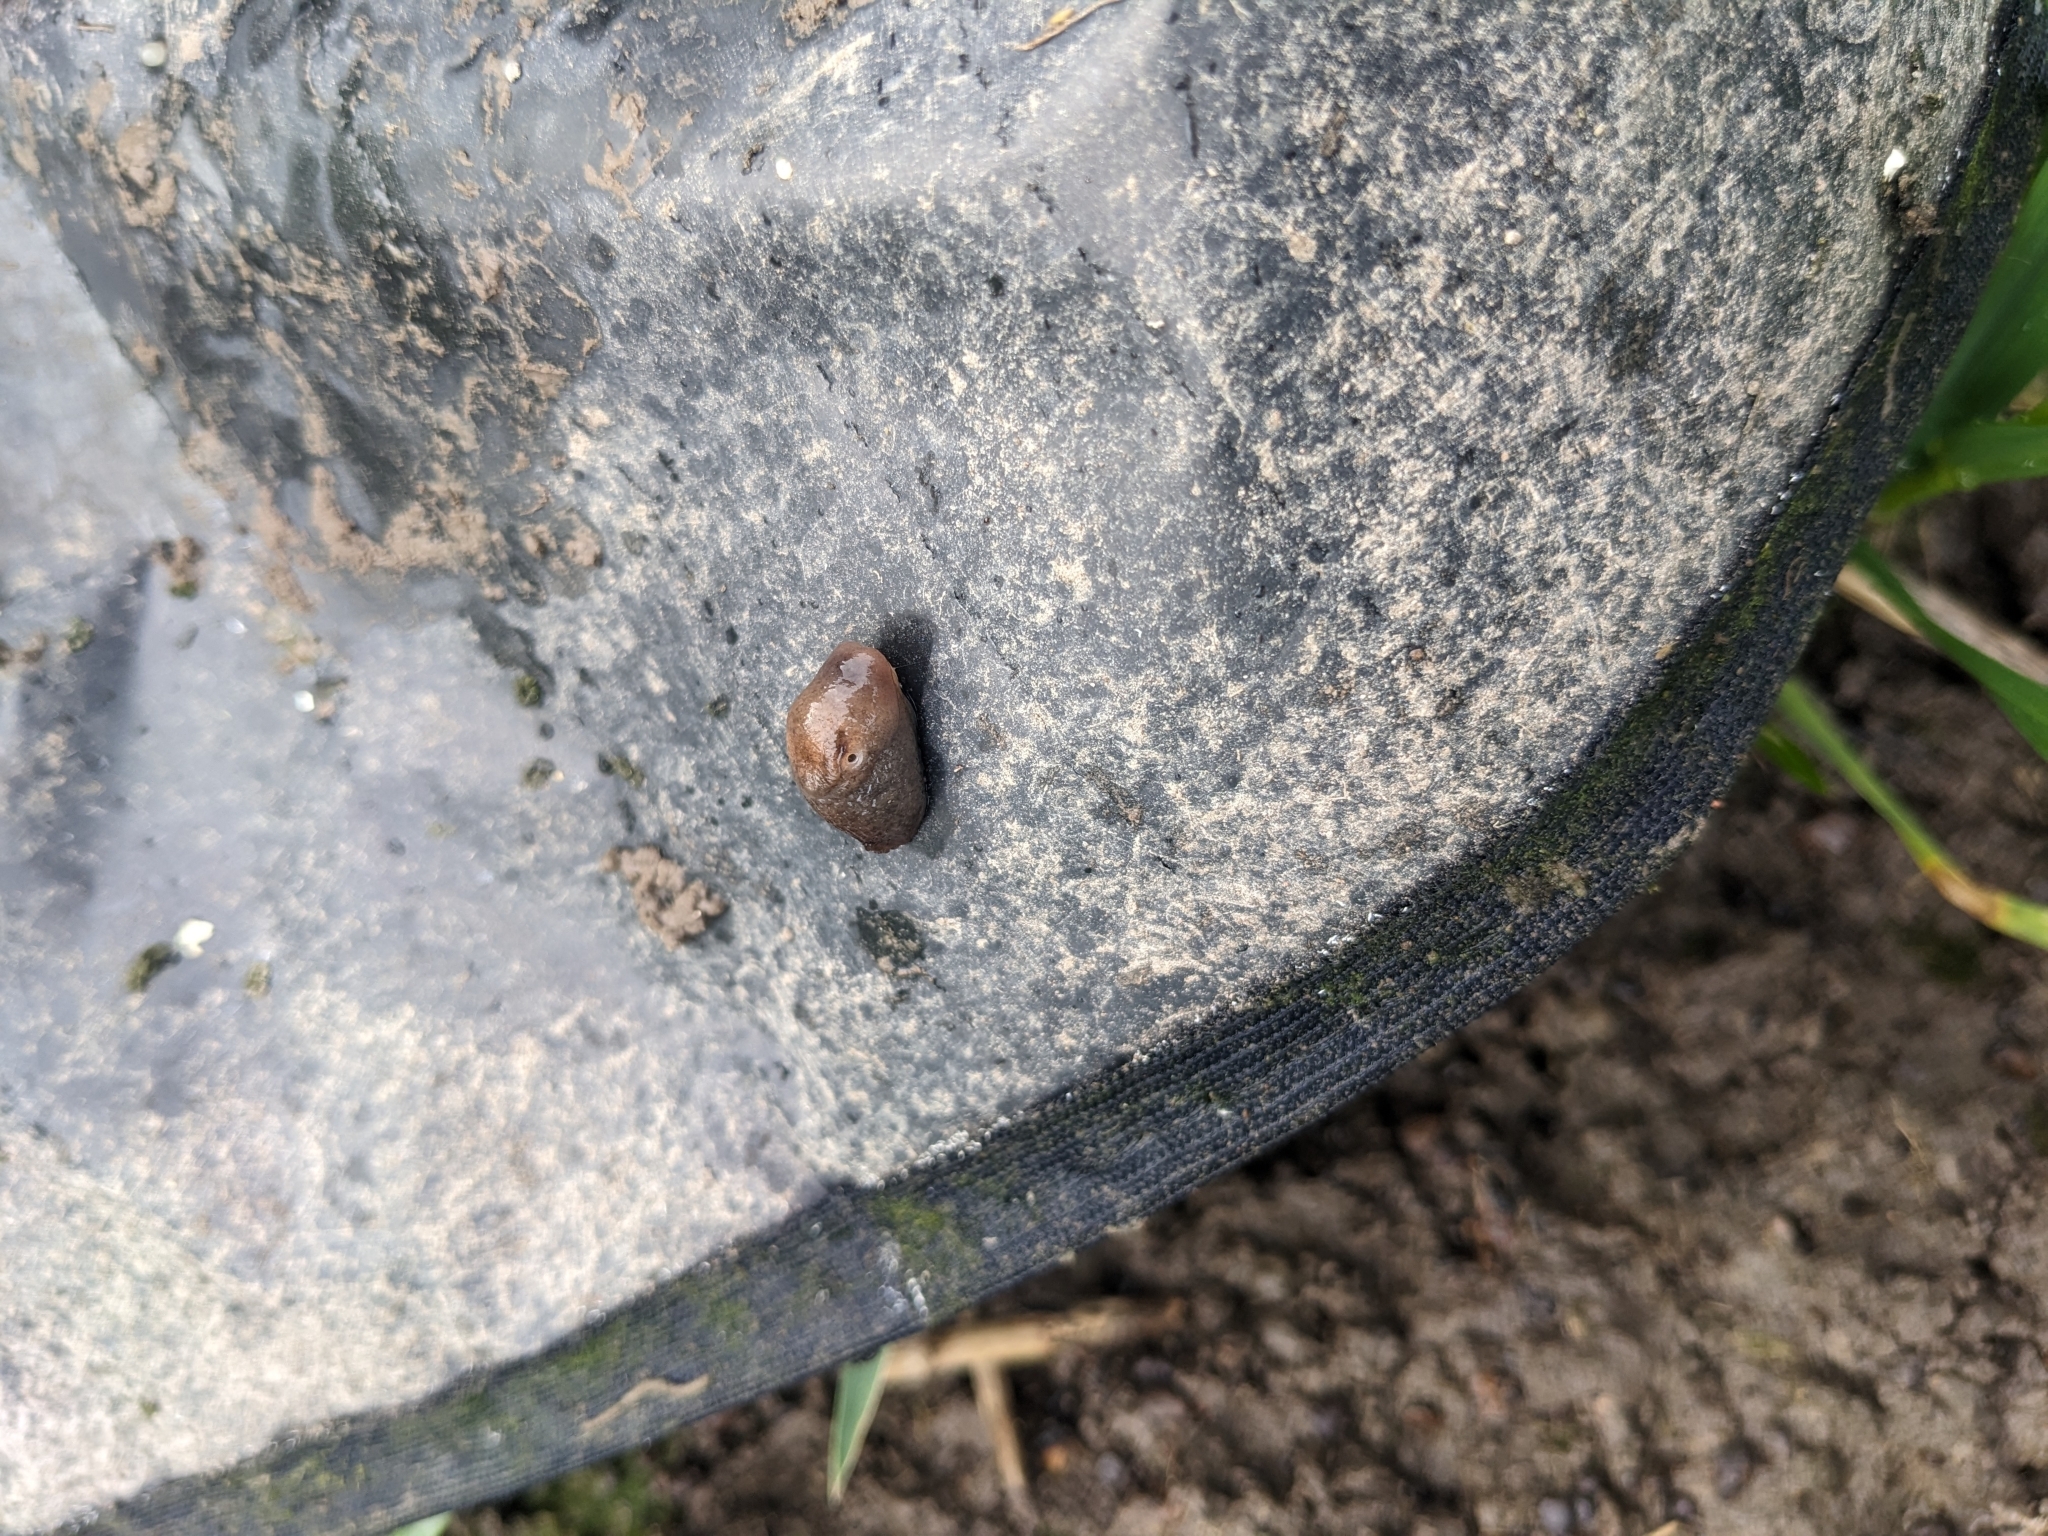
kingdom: Animalia
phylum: Mollusca
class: Gastropoda
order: Stylommatophora
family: Agriolimacidae
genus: Deroceras
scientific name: Deroceras invadens
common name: Caruana's slug
